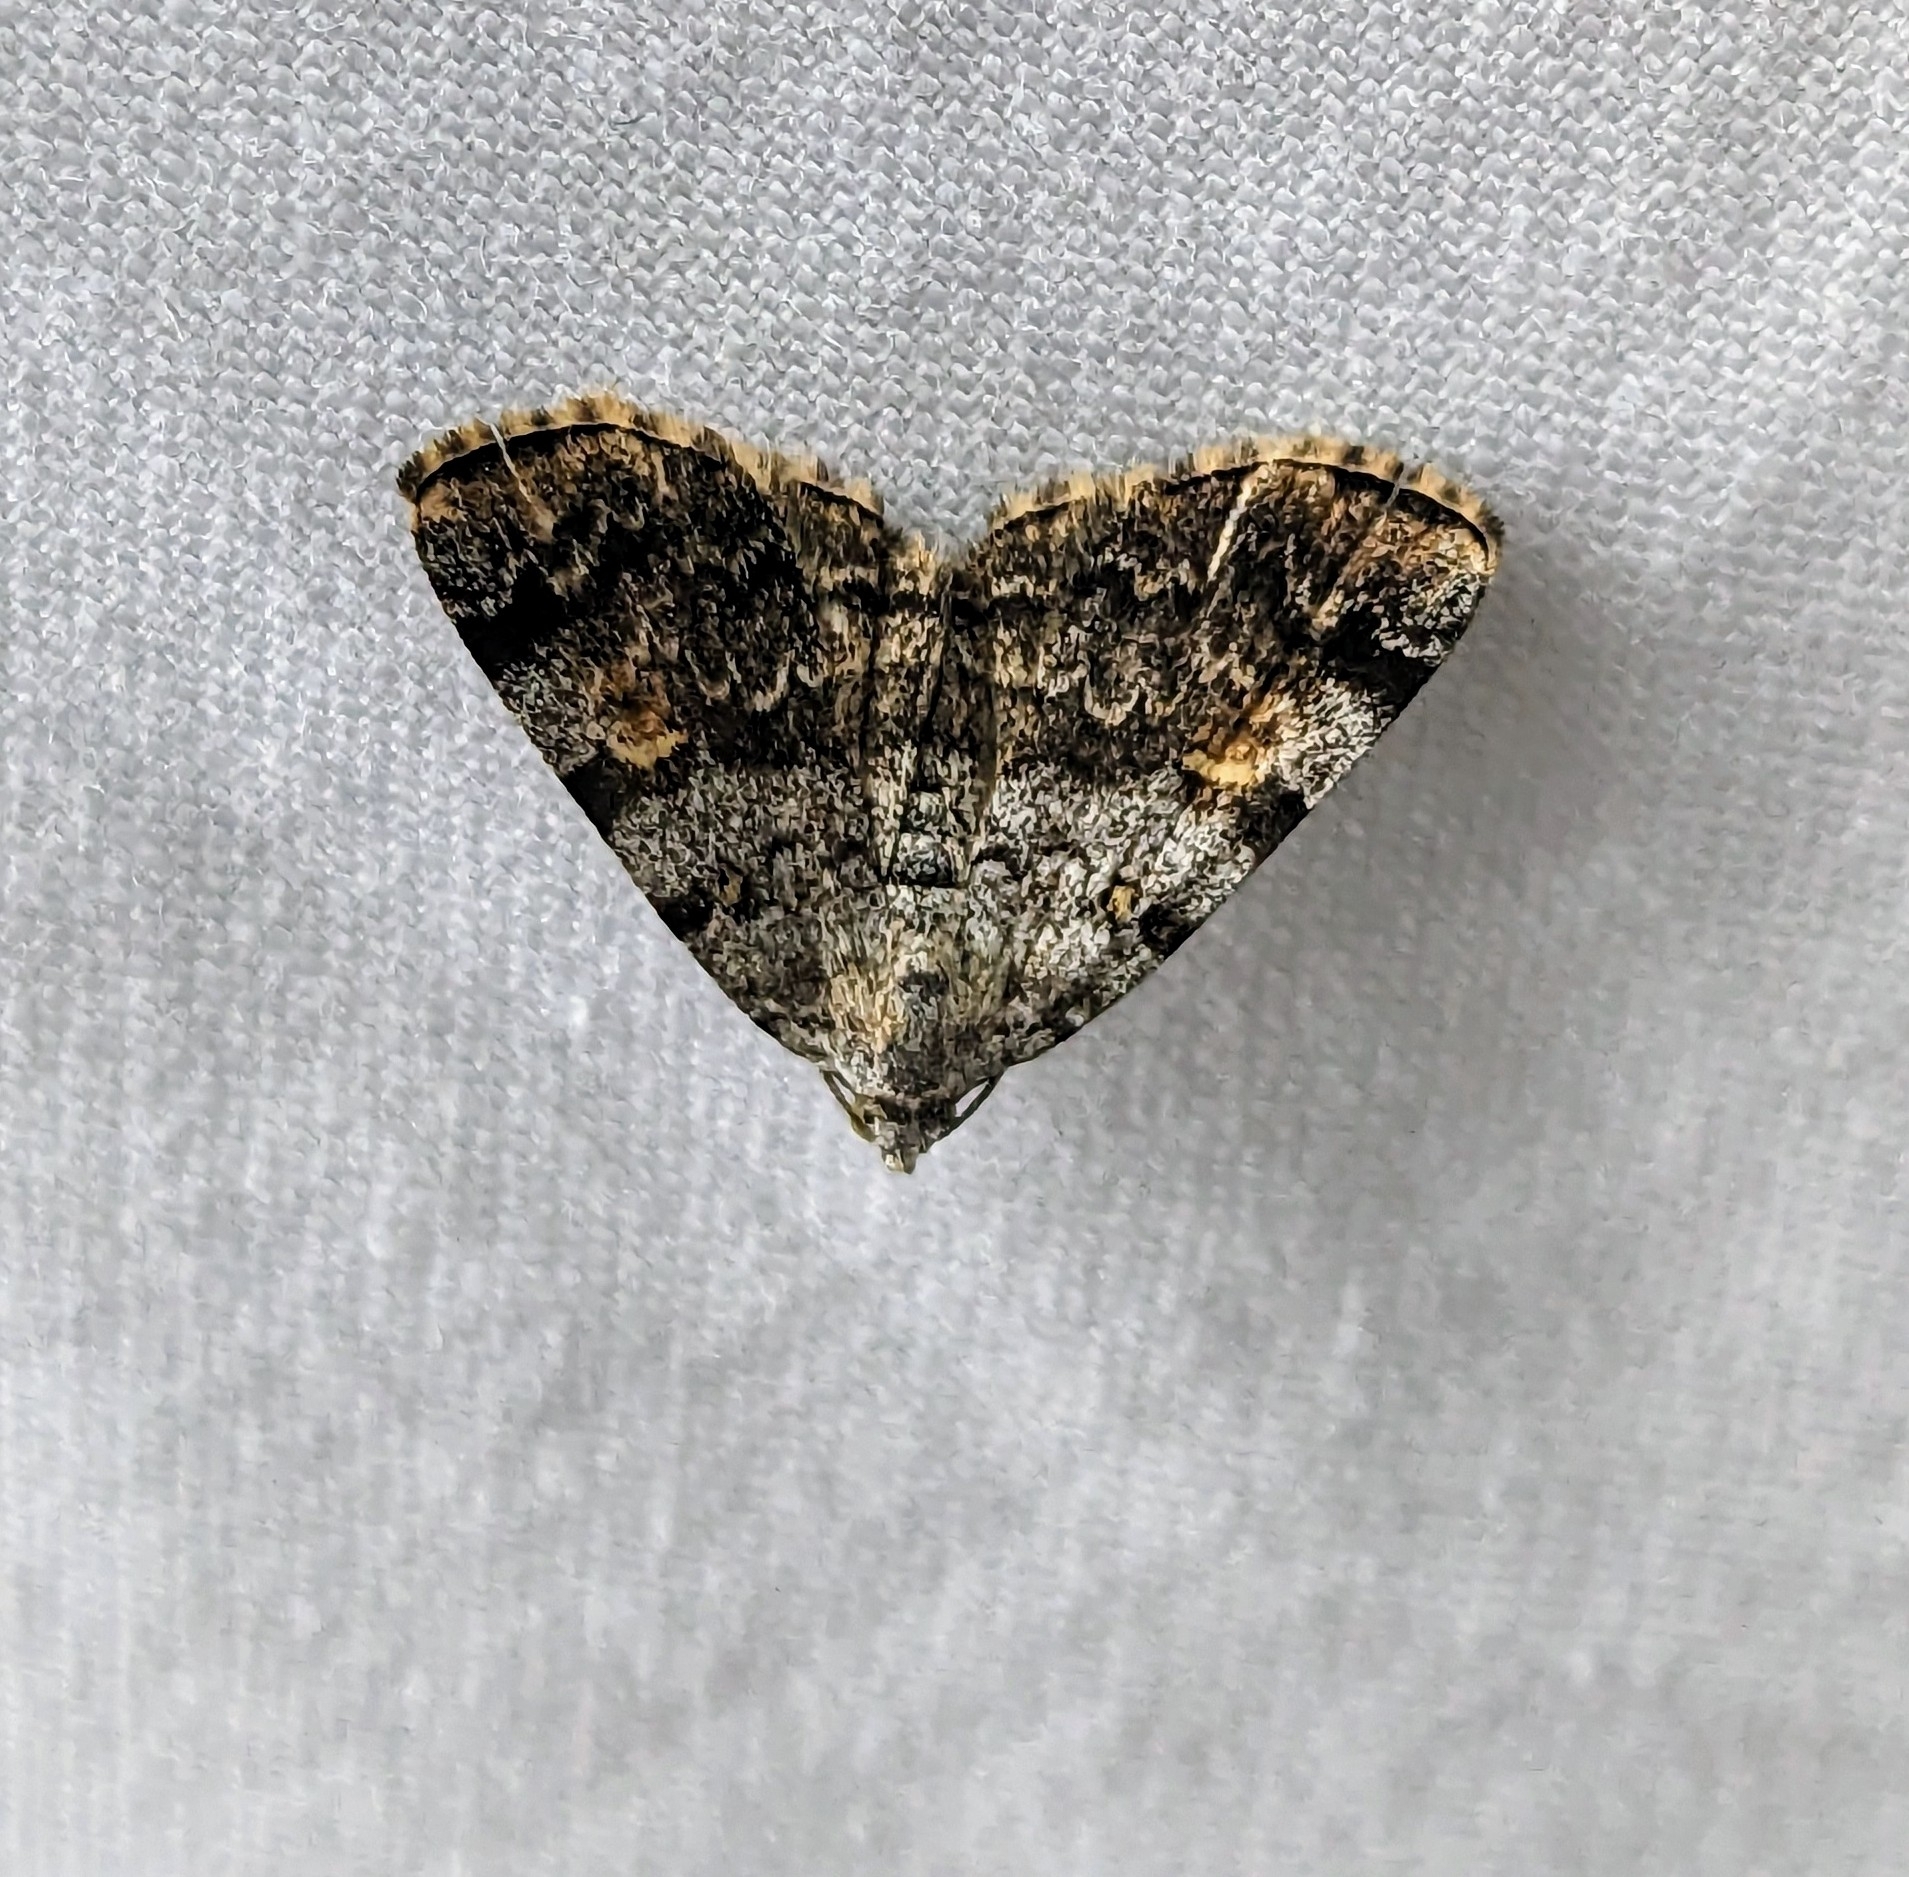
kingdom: Animalia
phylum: Arthropoda
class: Insecta
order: Lepidoptera
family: Erebidae
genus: Idia
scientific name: Idia americalis
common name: American idia moth
